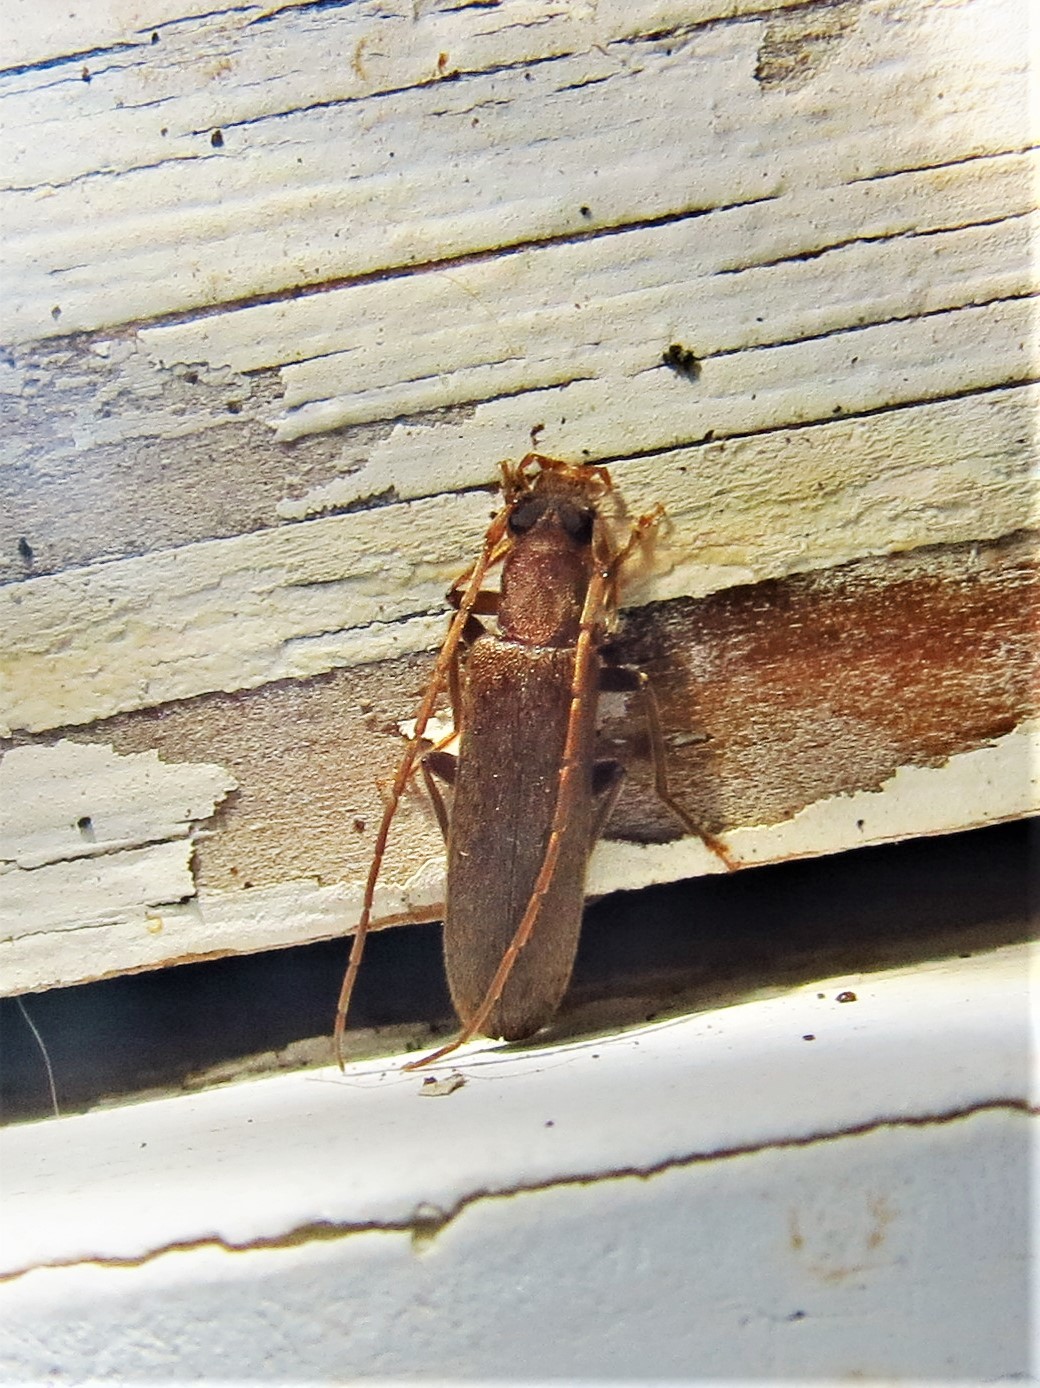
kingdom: Animalia
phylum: Arthropoda
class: Insecta
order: Coleoptera
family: Oedemeridae
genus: Sparedrus
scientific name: Sparedrus aspersus
